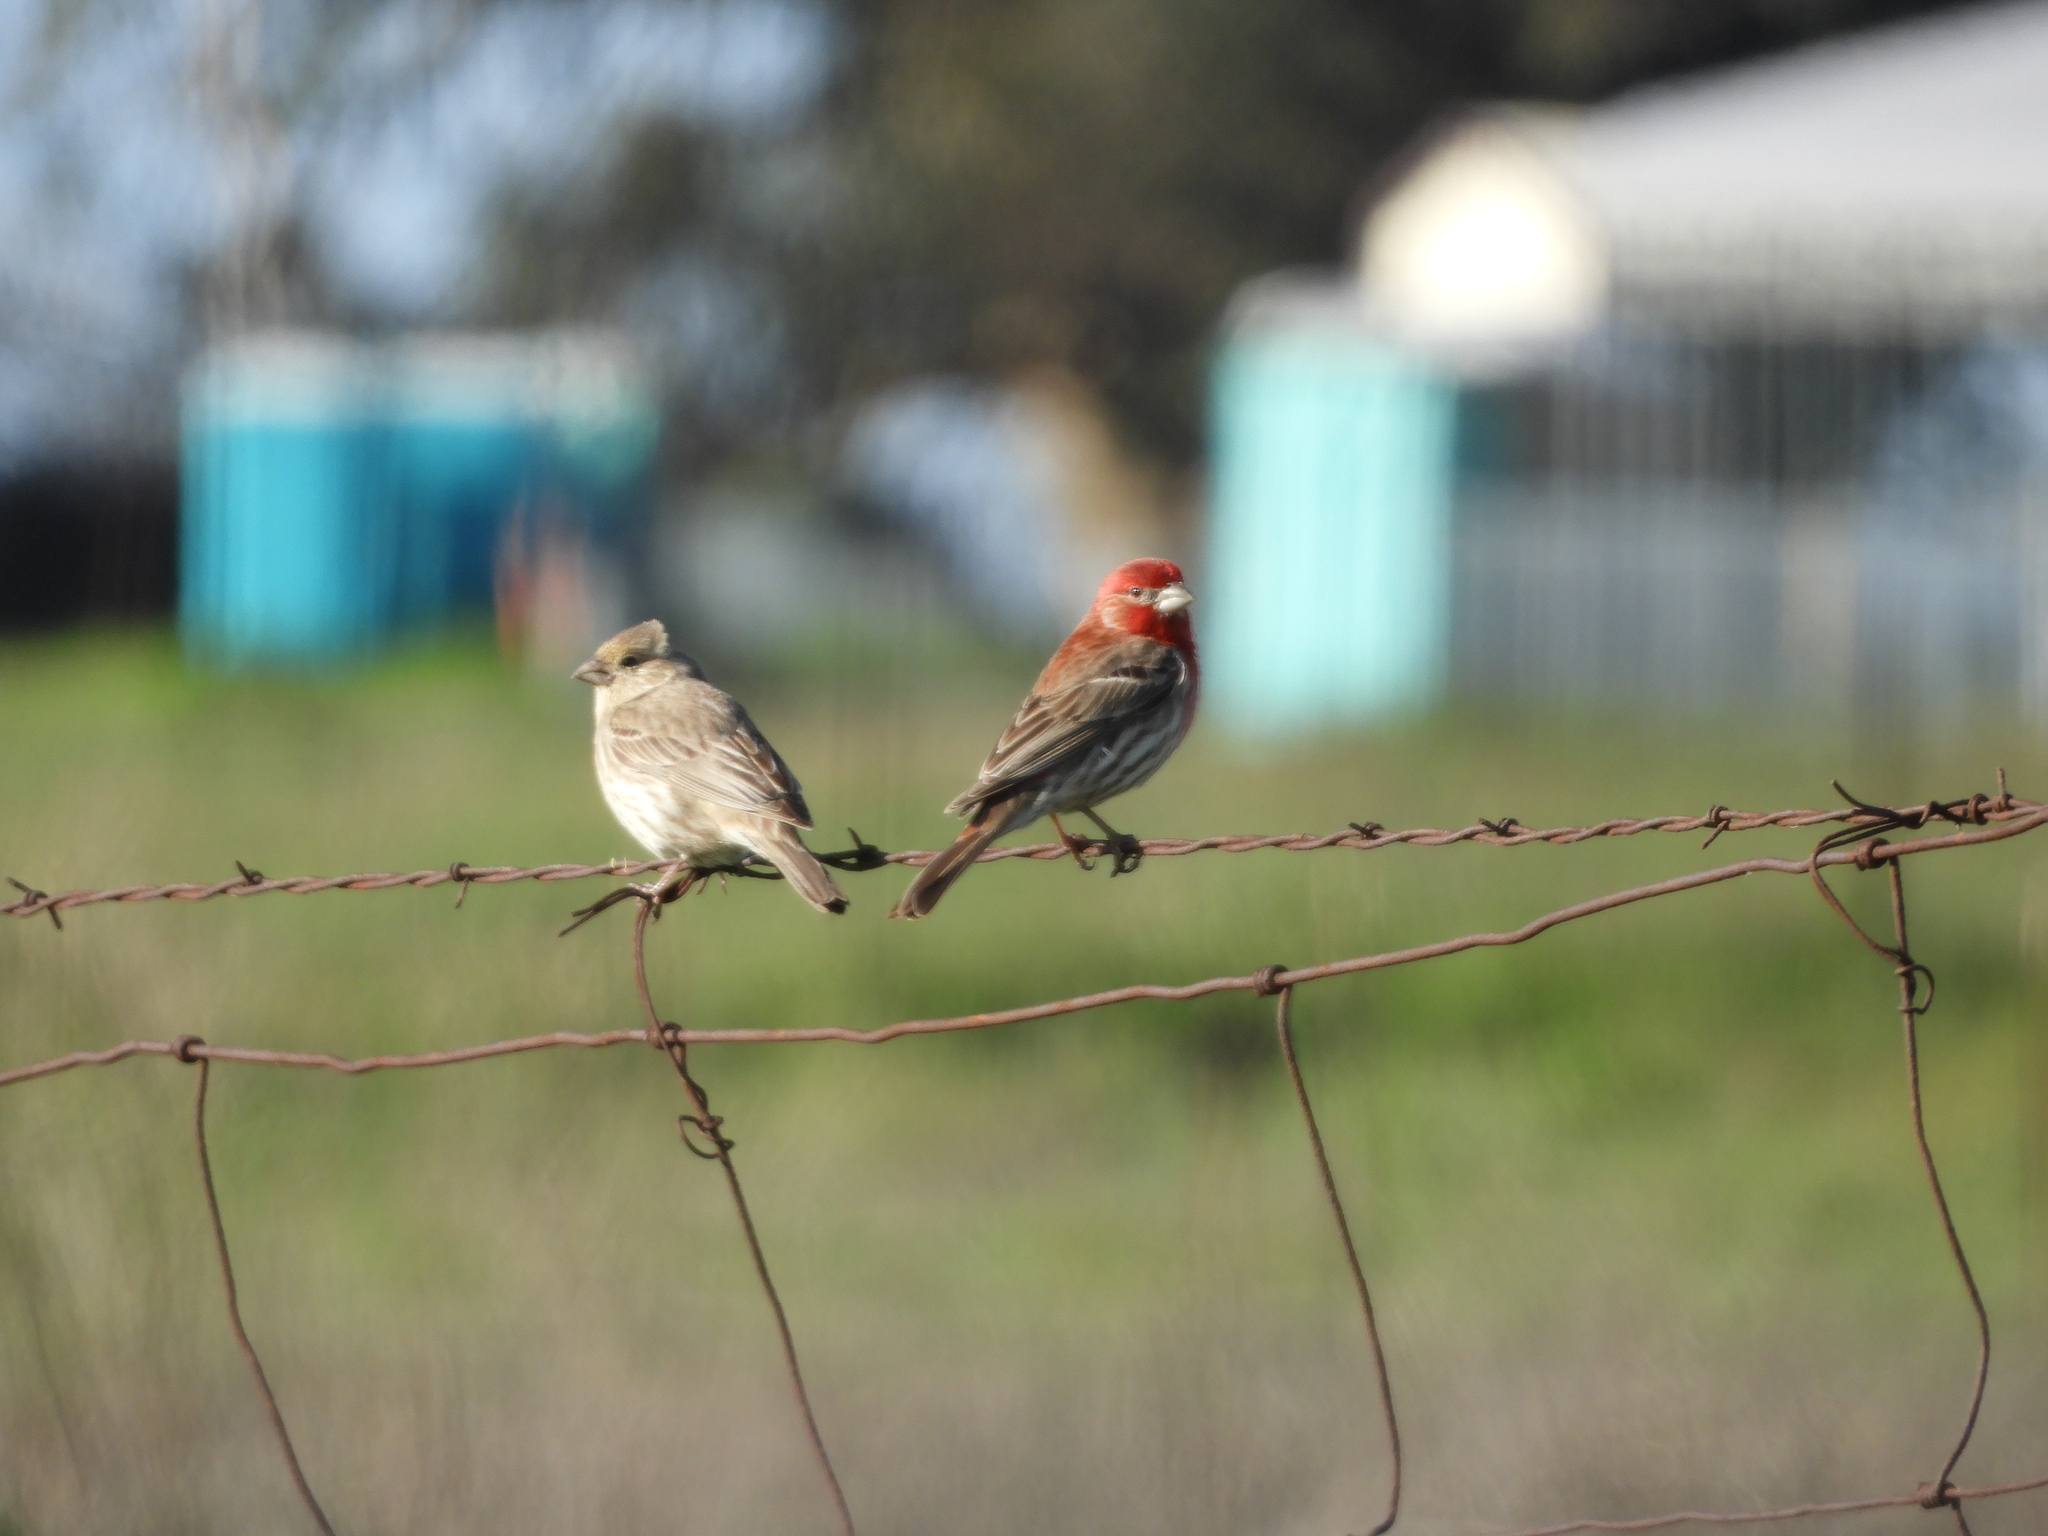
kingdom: Animalia
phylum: Chordata
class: Aves
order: Passeriformes
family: Fringillidae
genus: Haemorhous
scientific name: Haemorhous mexicanus
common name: House finch
